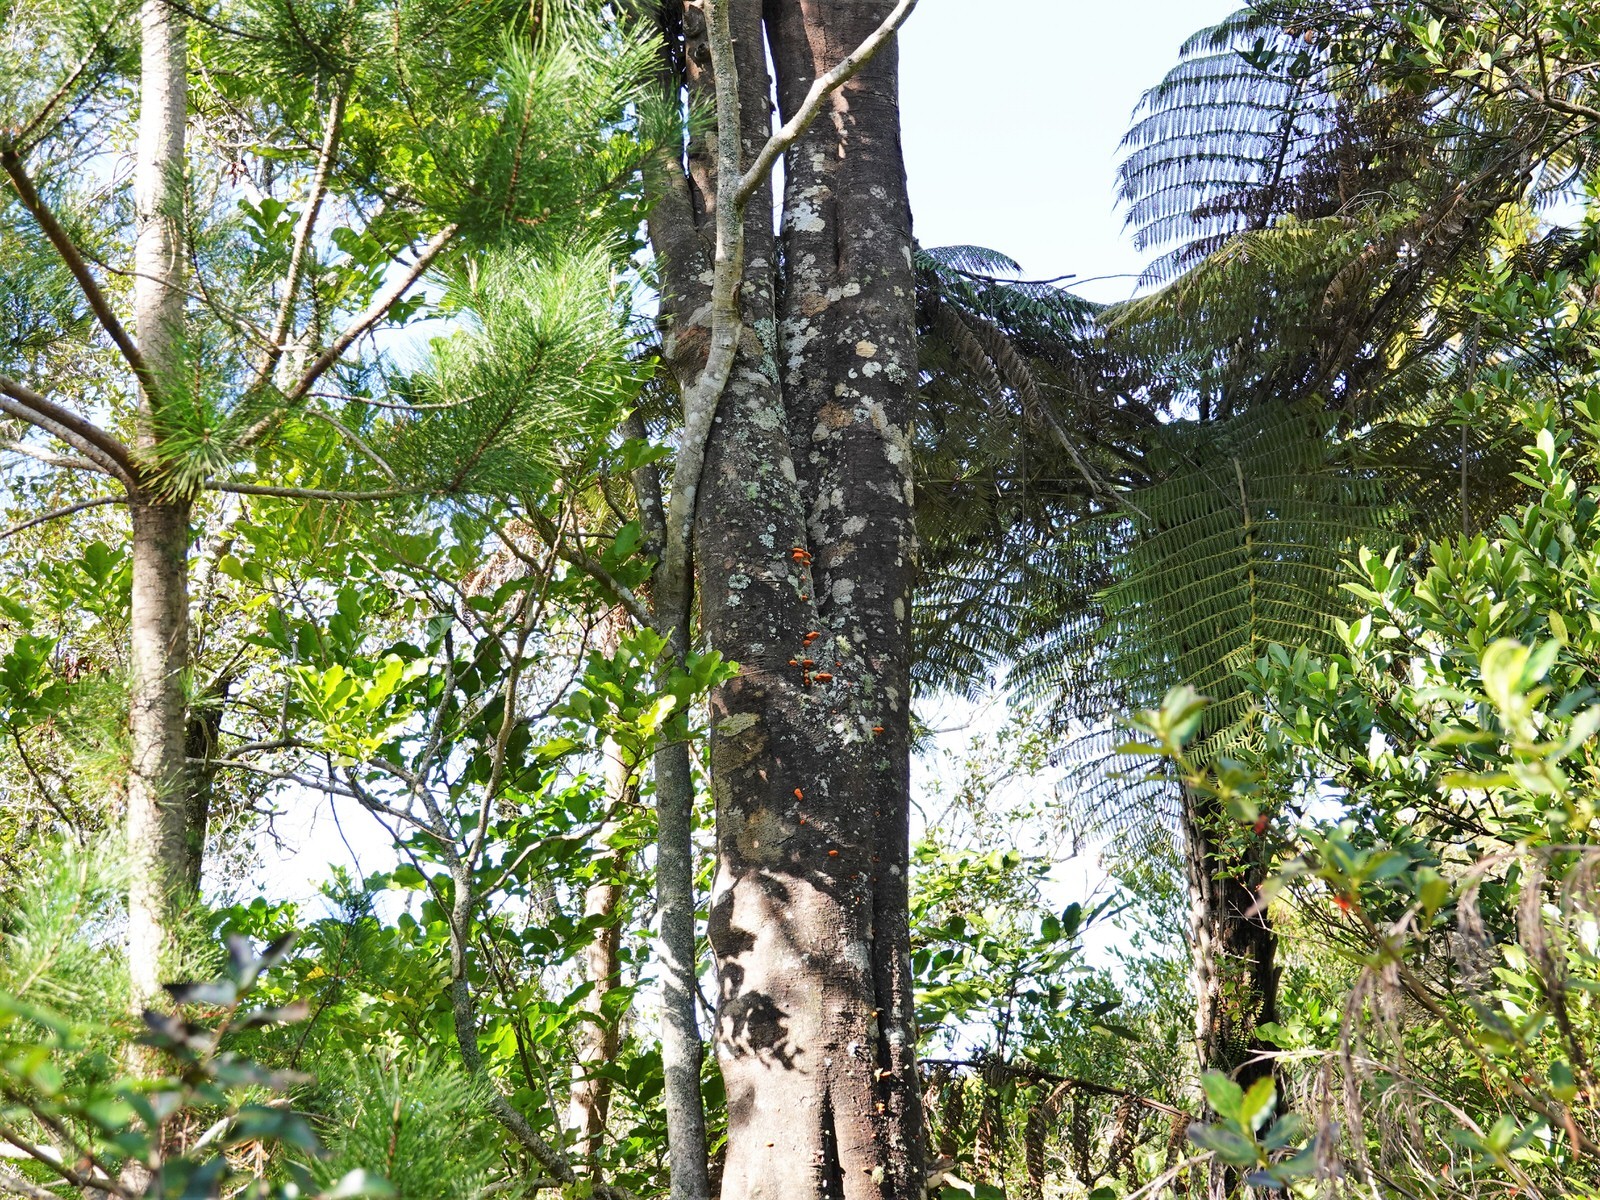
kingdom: Fungi
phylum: Basidiomycota
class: Agaricomycetes
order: Polyporales
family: Polyporaceae
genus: Trametes
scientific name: Trametes coccinea
